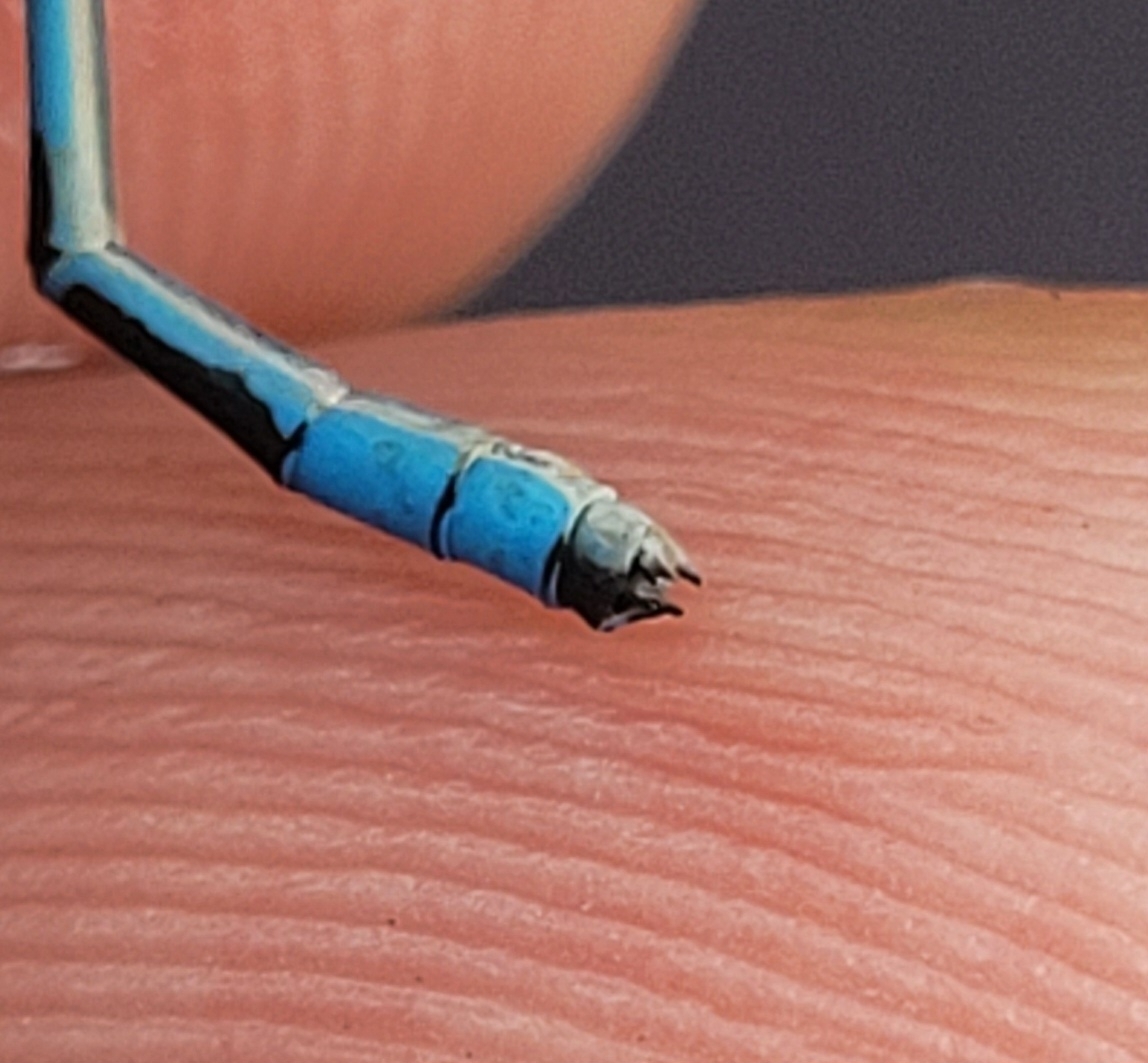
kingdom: Animalia
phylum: Arthropoda
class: Insecta
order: Odonata
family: Coenagrionidae
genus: Enallagma
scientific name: Enallagma hageni
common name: Hagen's bluet
